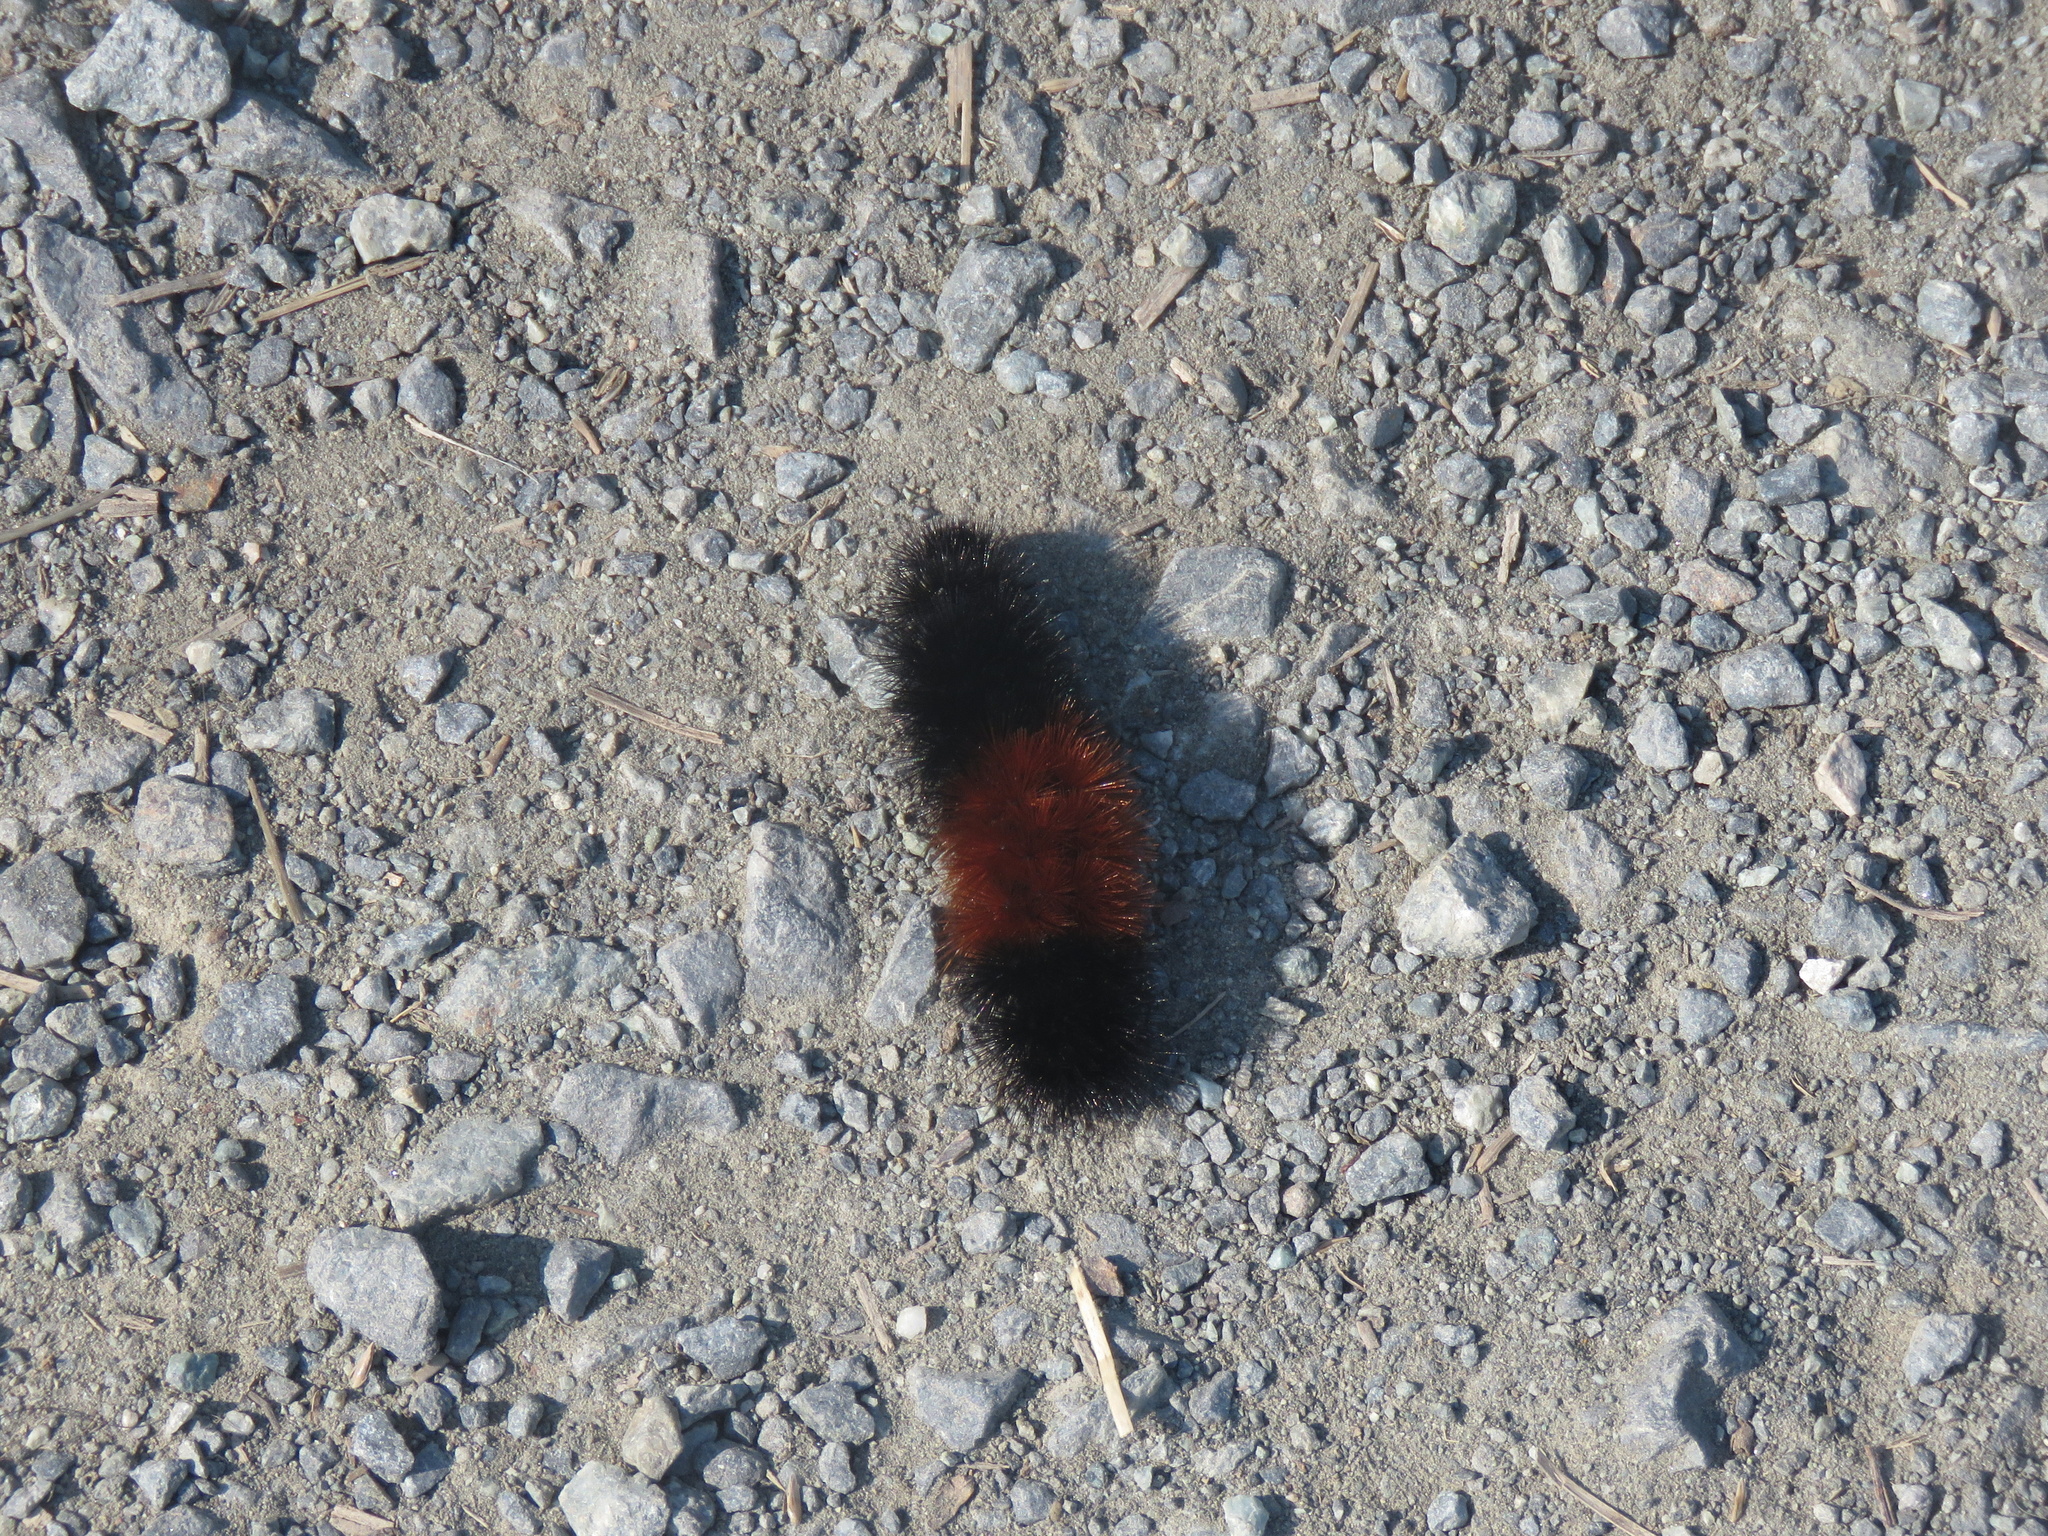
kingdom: Animalia
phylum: Arthropoda
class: Insecta
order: Lepidoptera
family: Erebidae
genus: Pyrrharctia
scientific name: Pyrrharctia isabella
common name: Isabella tiger moth
